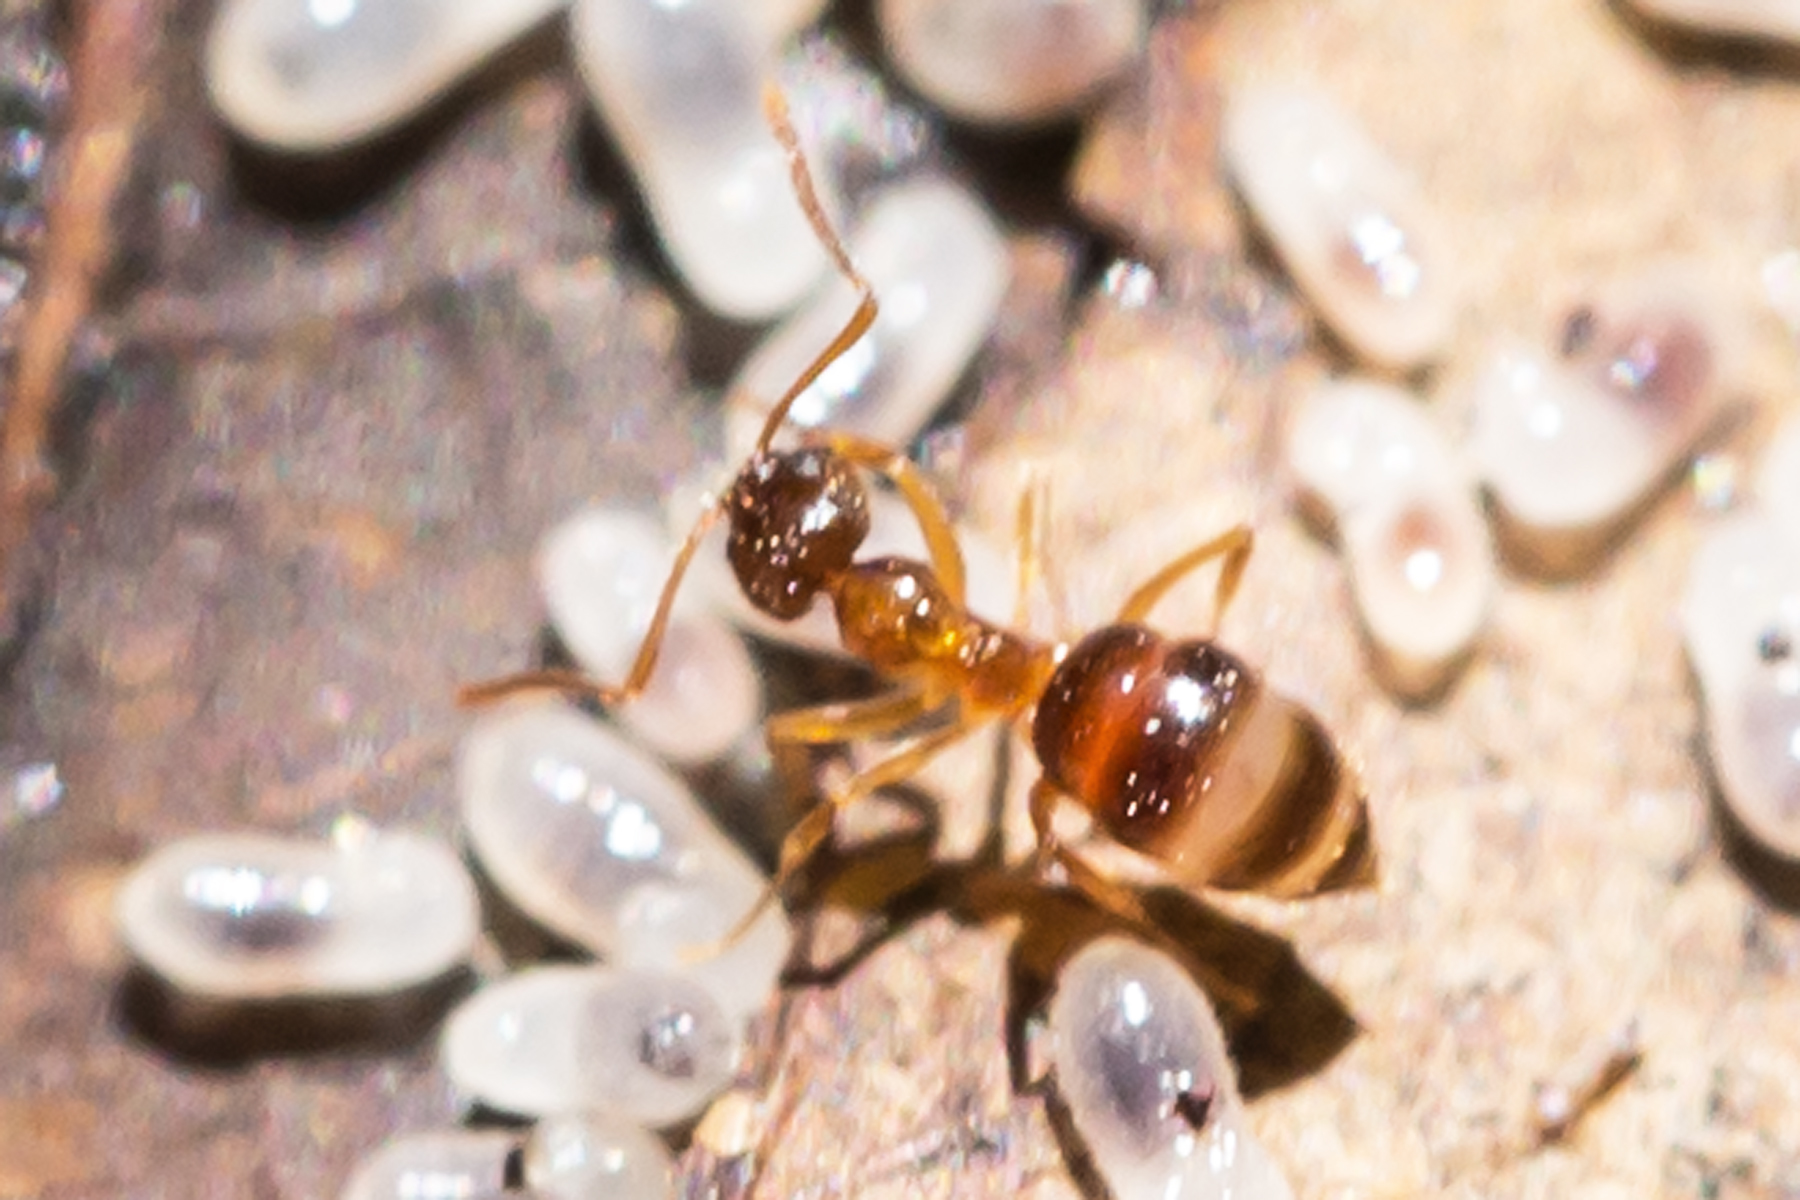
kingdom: Animalia
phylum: Arthropoda
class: Insecta
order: Hymenoptera
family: Formicidae
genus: Paratrechina
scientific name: Paratrechina flavipes
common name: Eastern asian formicine ant
